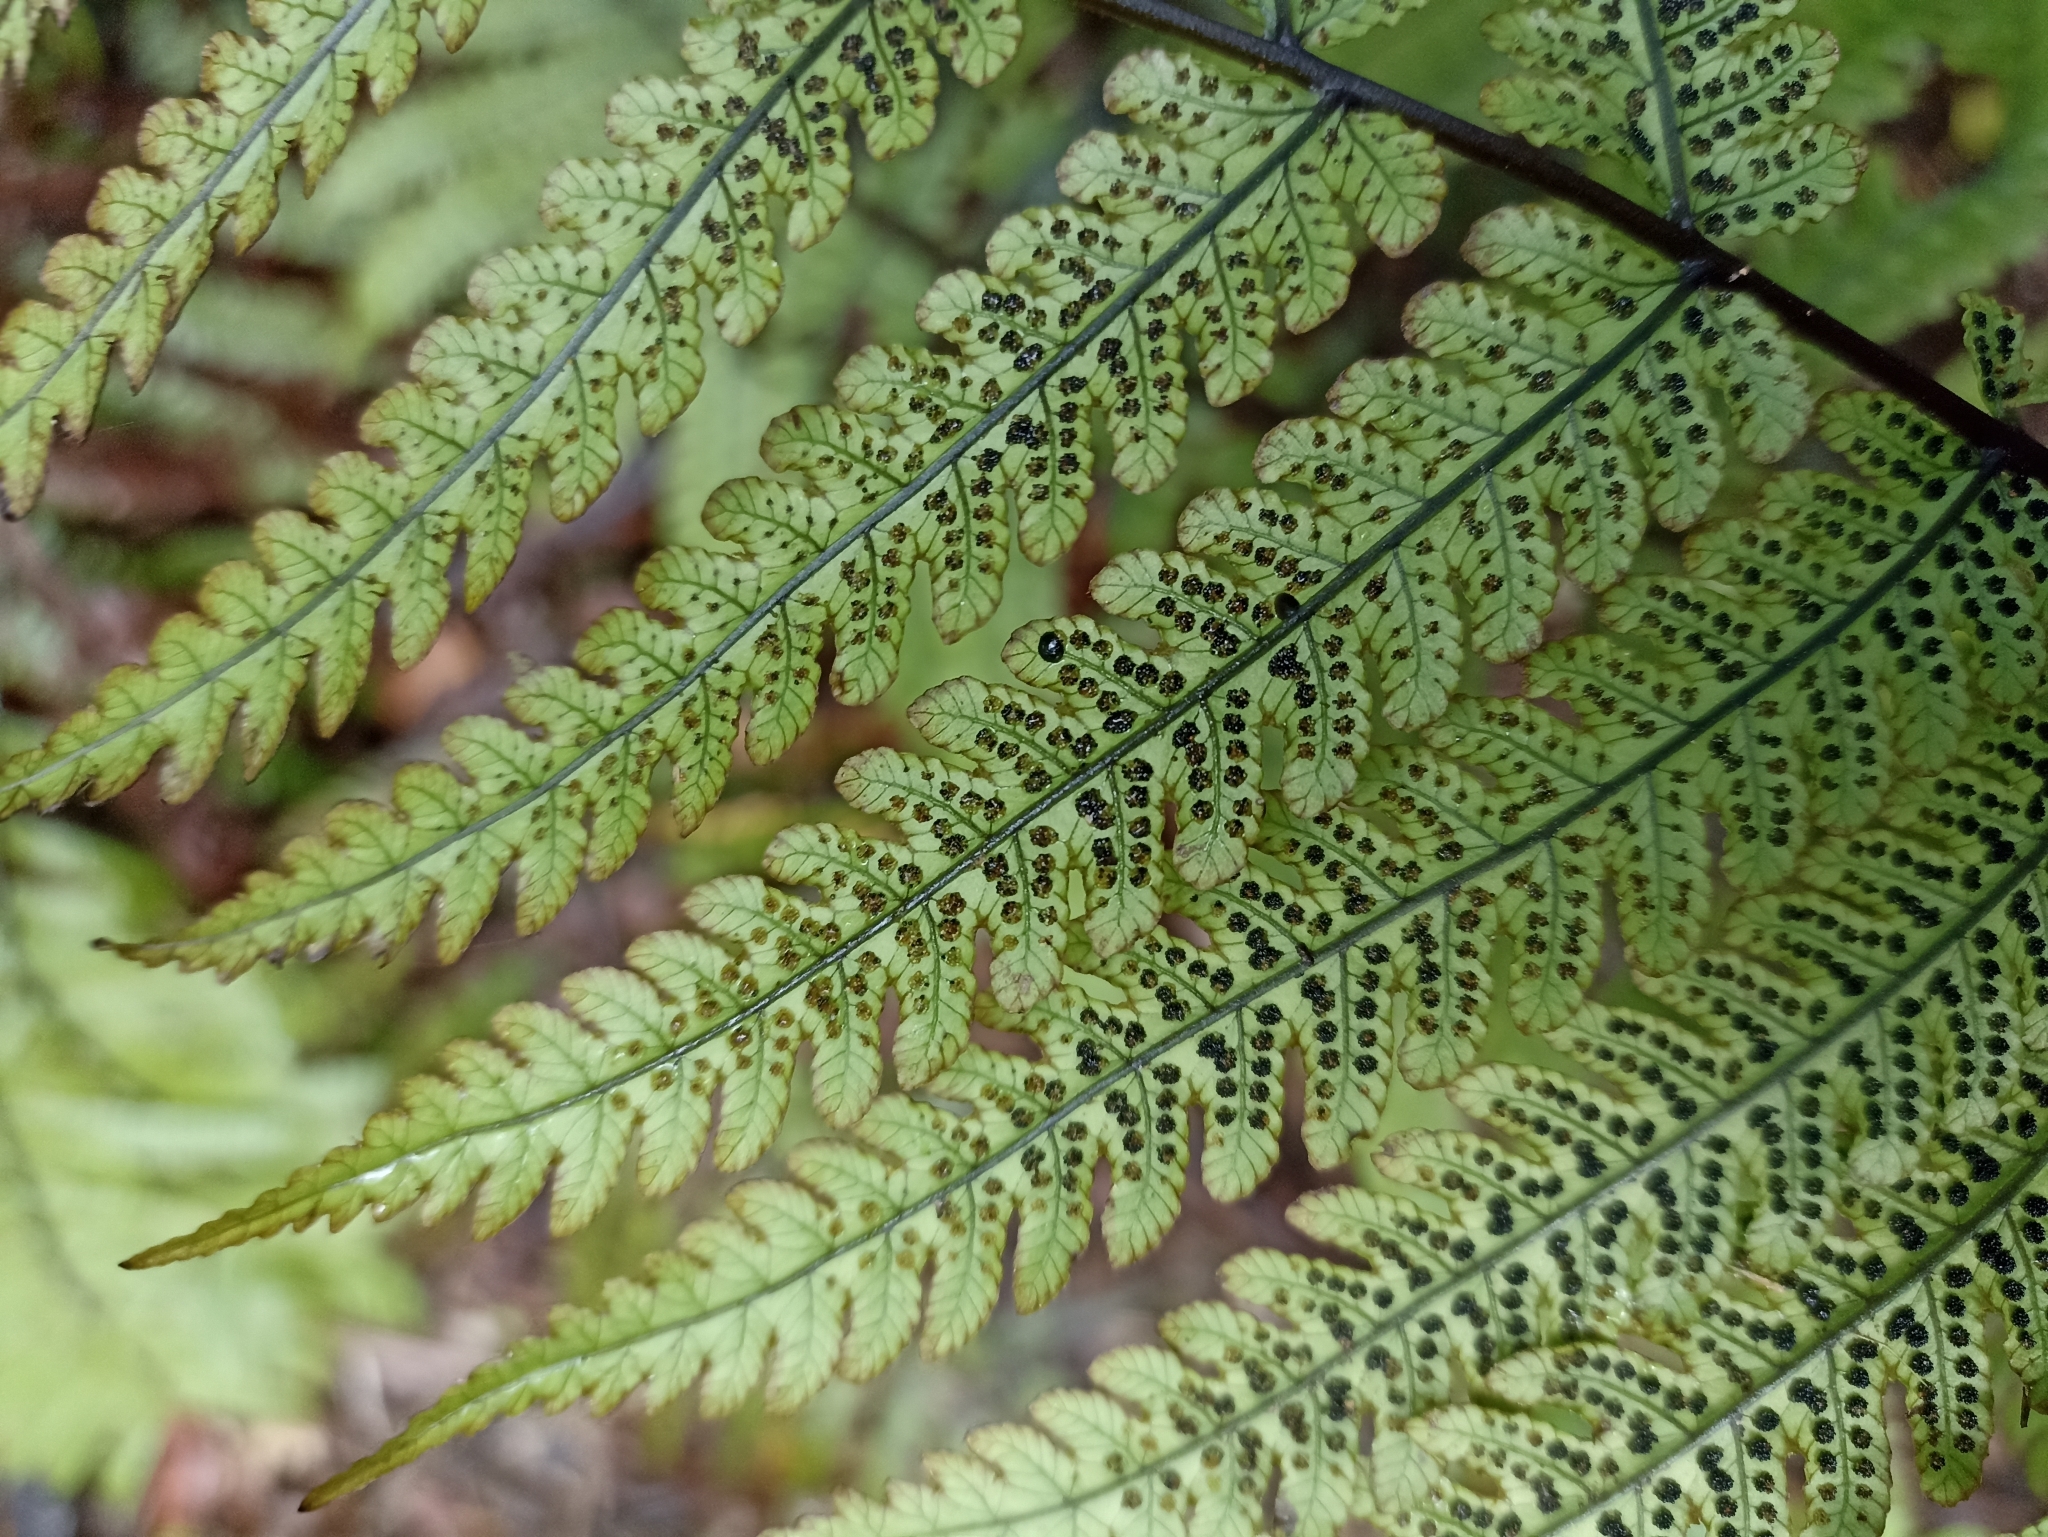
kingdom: Plantae
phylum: Tracheophyta
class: Polypodiopsida
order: Polypodiales
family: Thelypteridaceae
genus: Pakau
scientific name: Pakau pennigera
